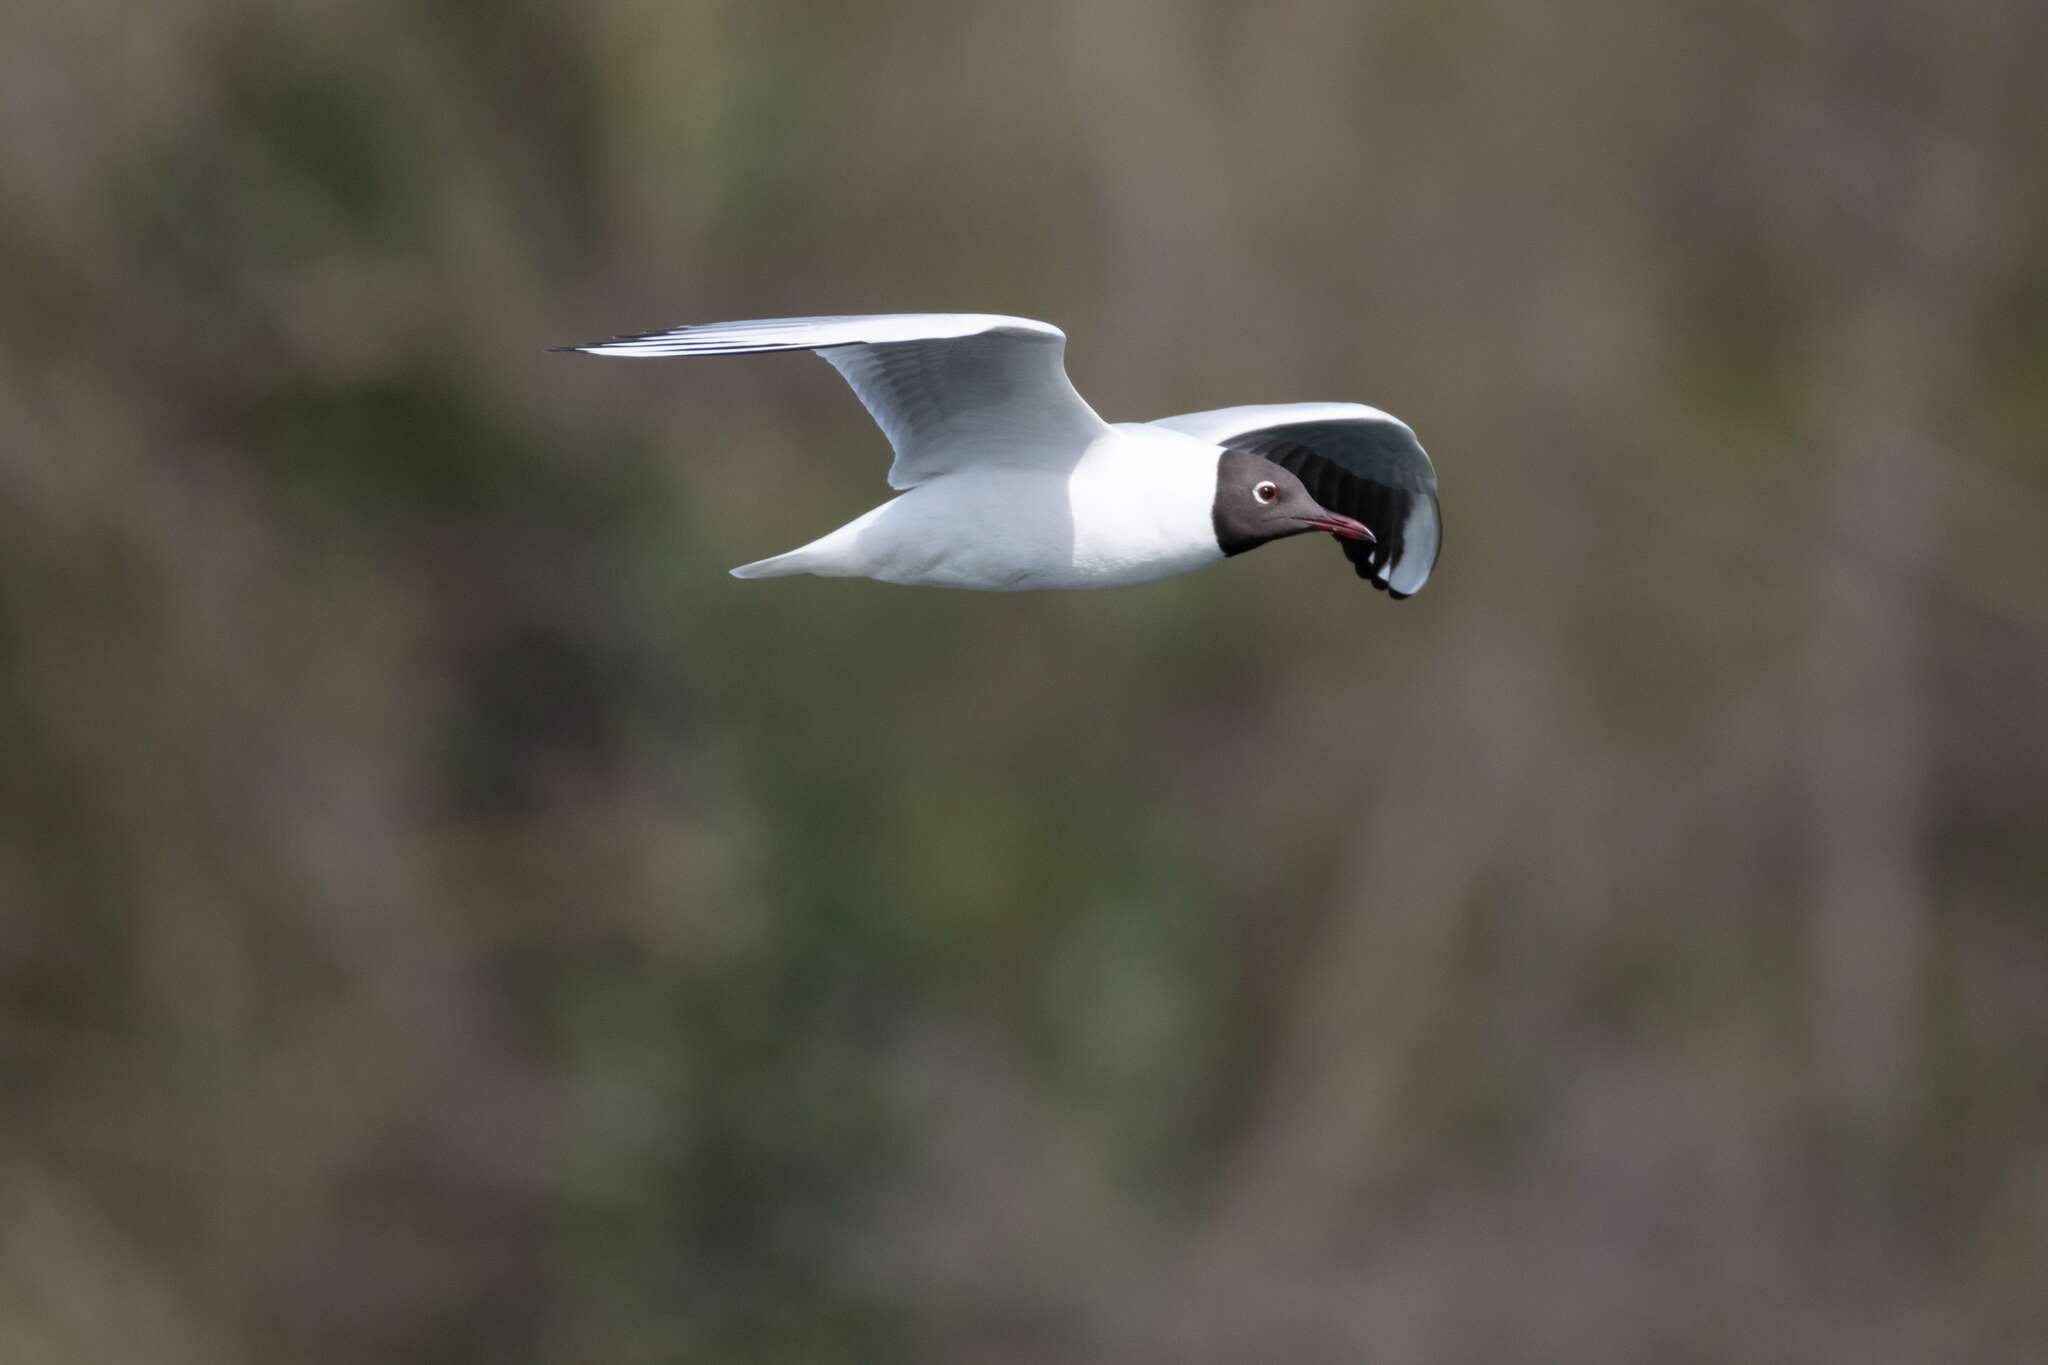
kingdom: Animalia
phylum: Chordata
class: Aves
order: Charadriiformes
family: Laridae
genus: Chroicocephalus
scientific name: Chroicocephalus ridibundus
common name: Black-headed gull
